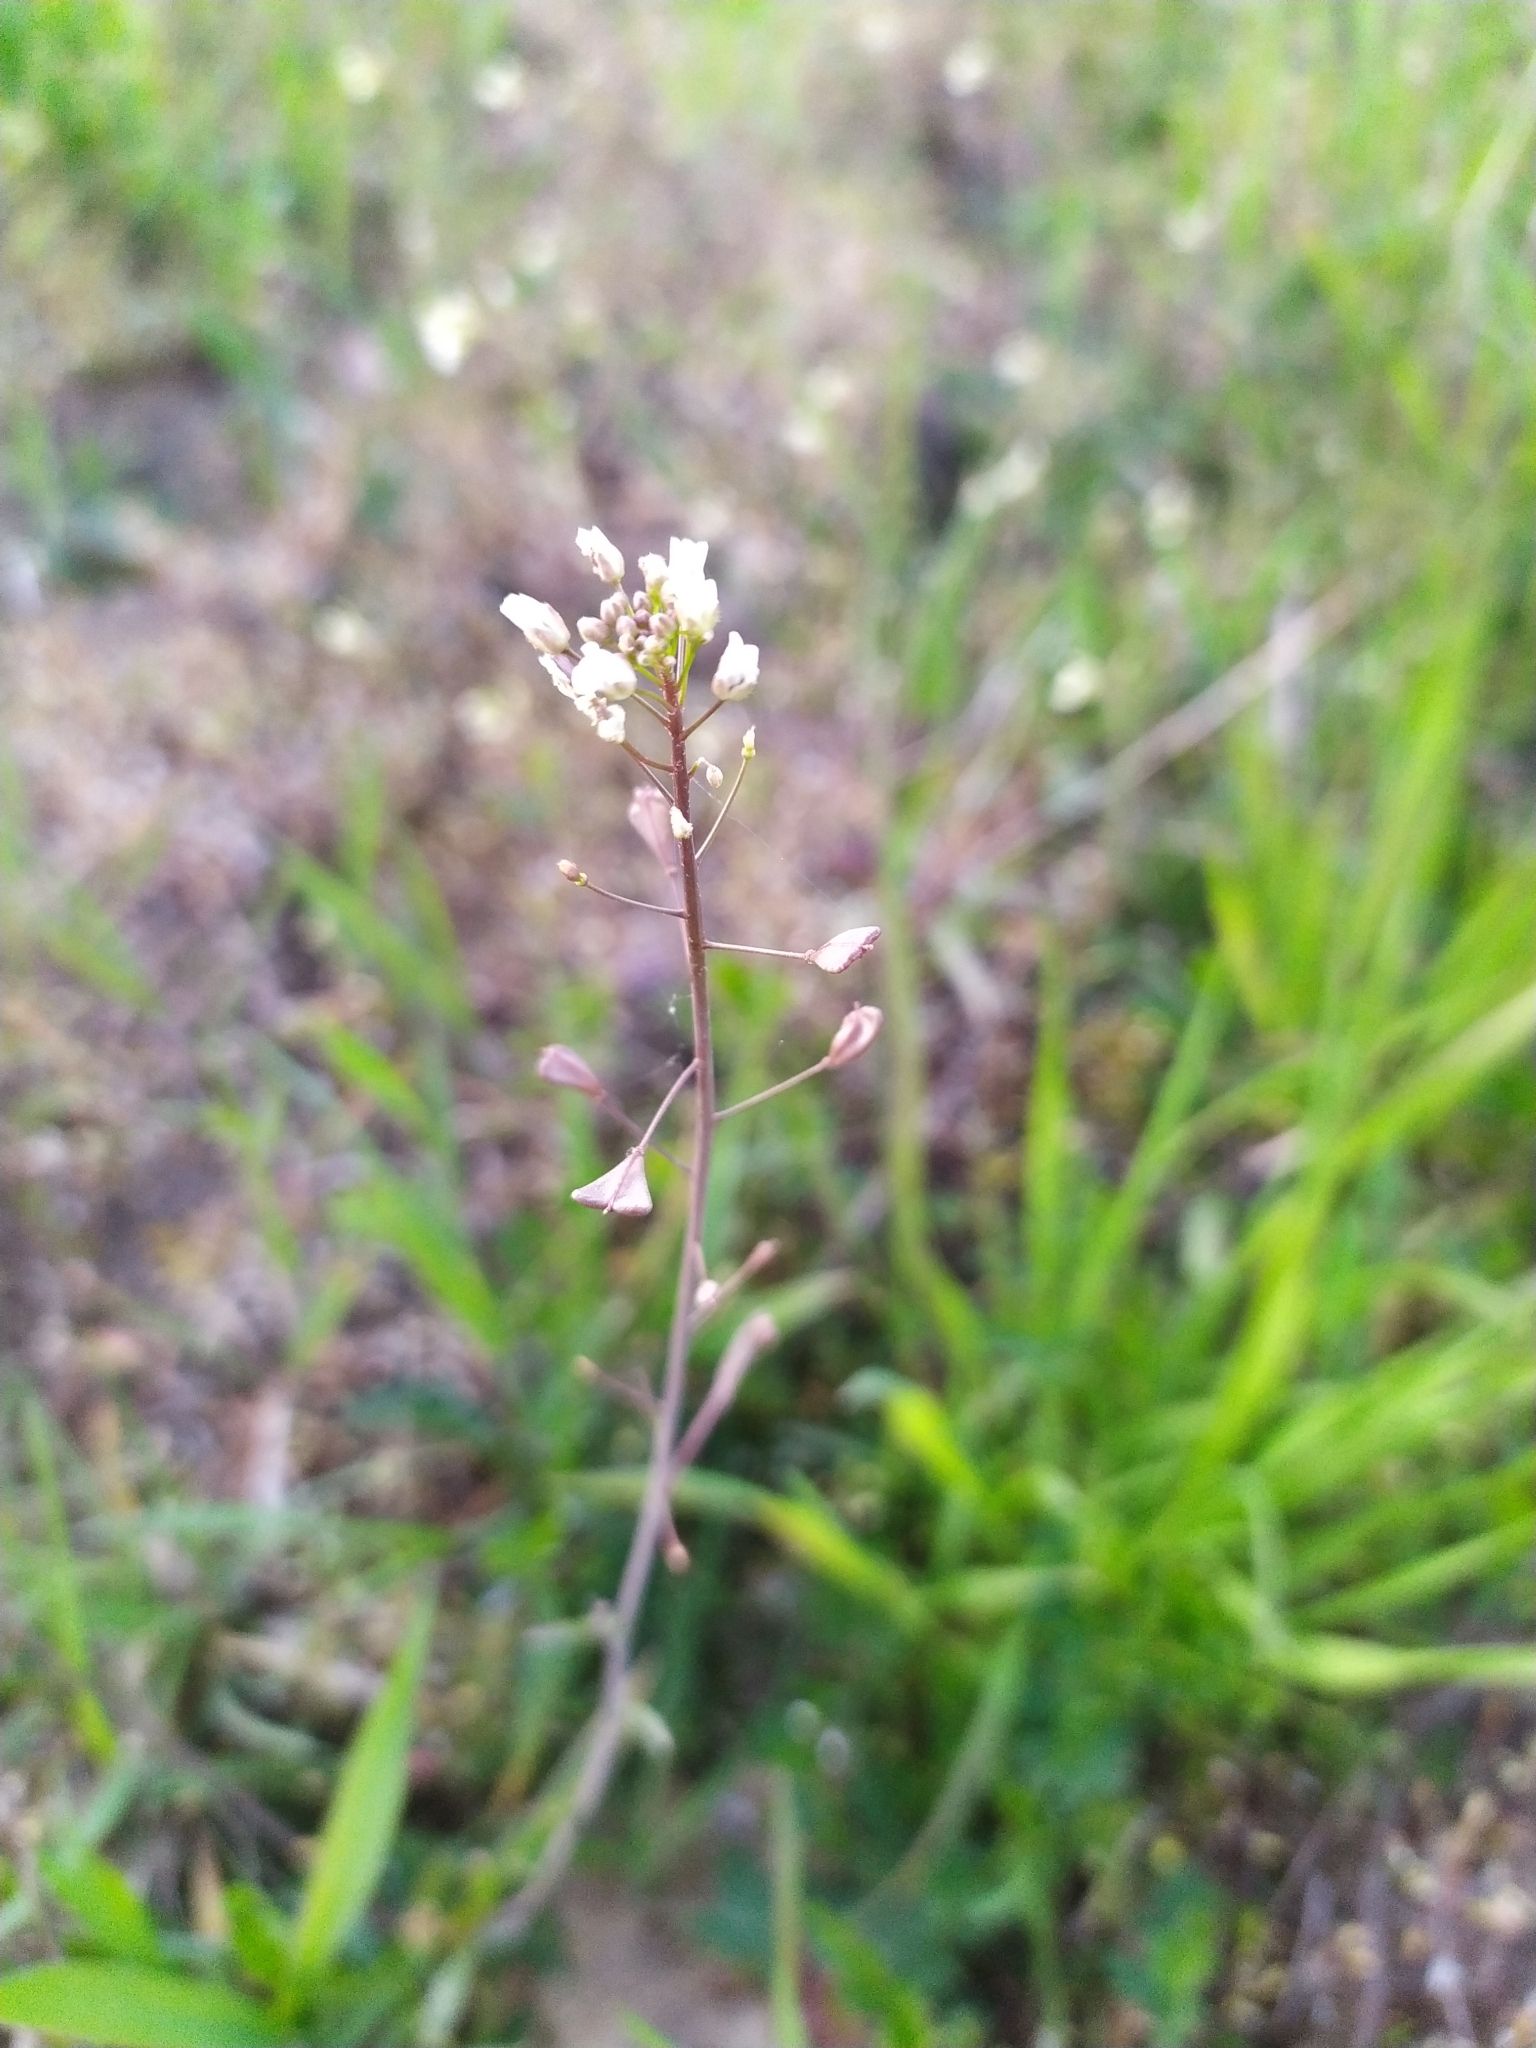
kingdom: Plantae
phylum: Tracheophyta
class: Magnoliopsida
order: Brassicales
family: Brassicaceae
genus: Capsella
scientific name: Capsella bursa-pastoris
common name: Shepherd's purse
